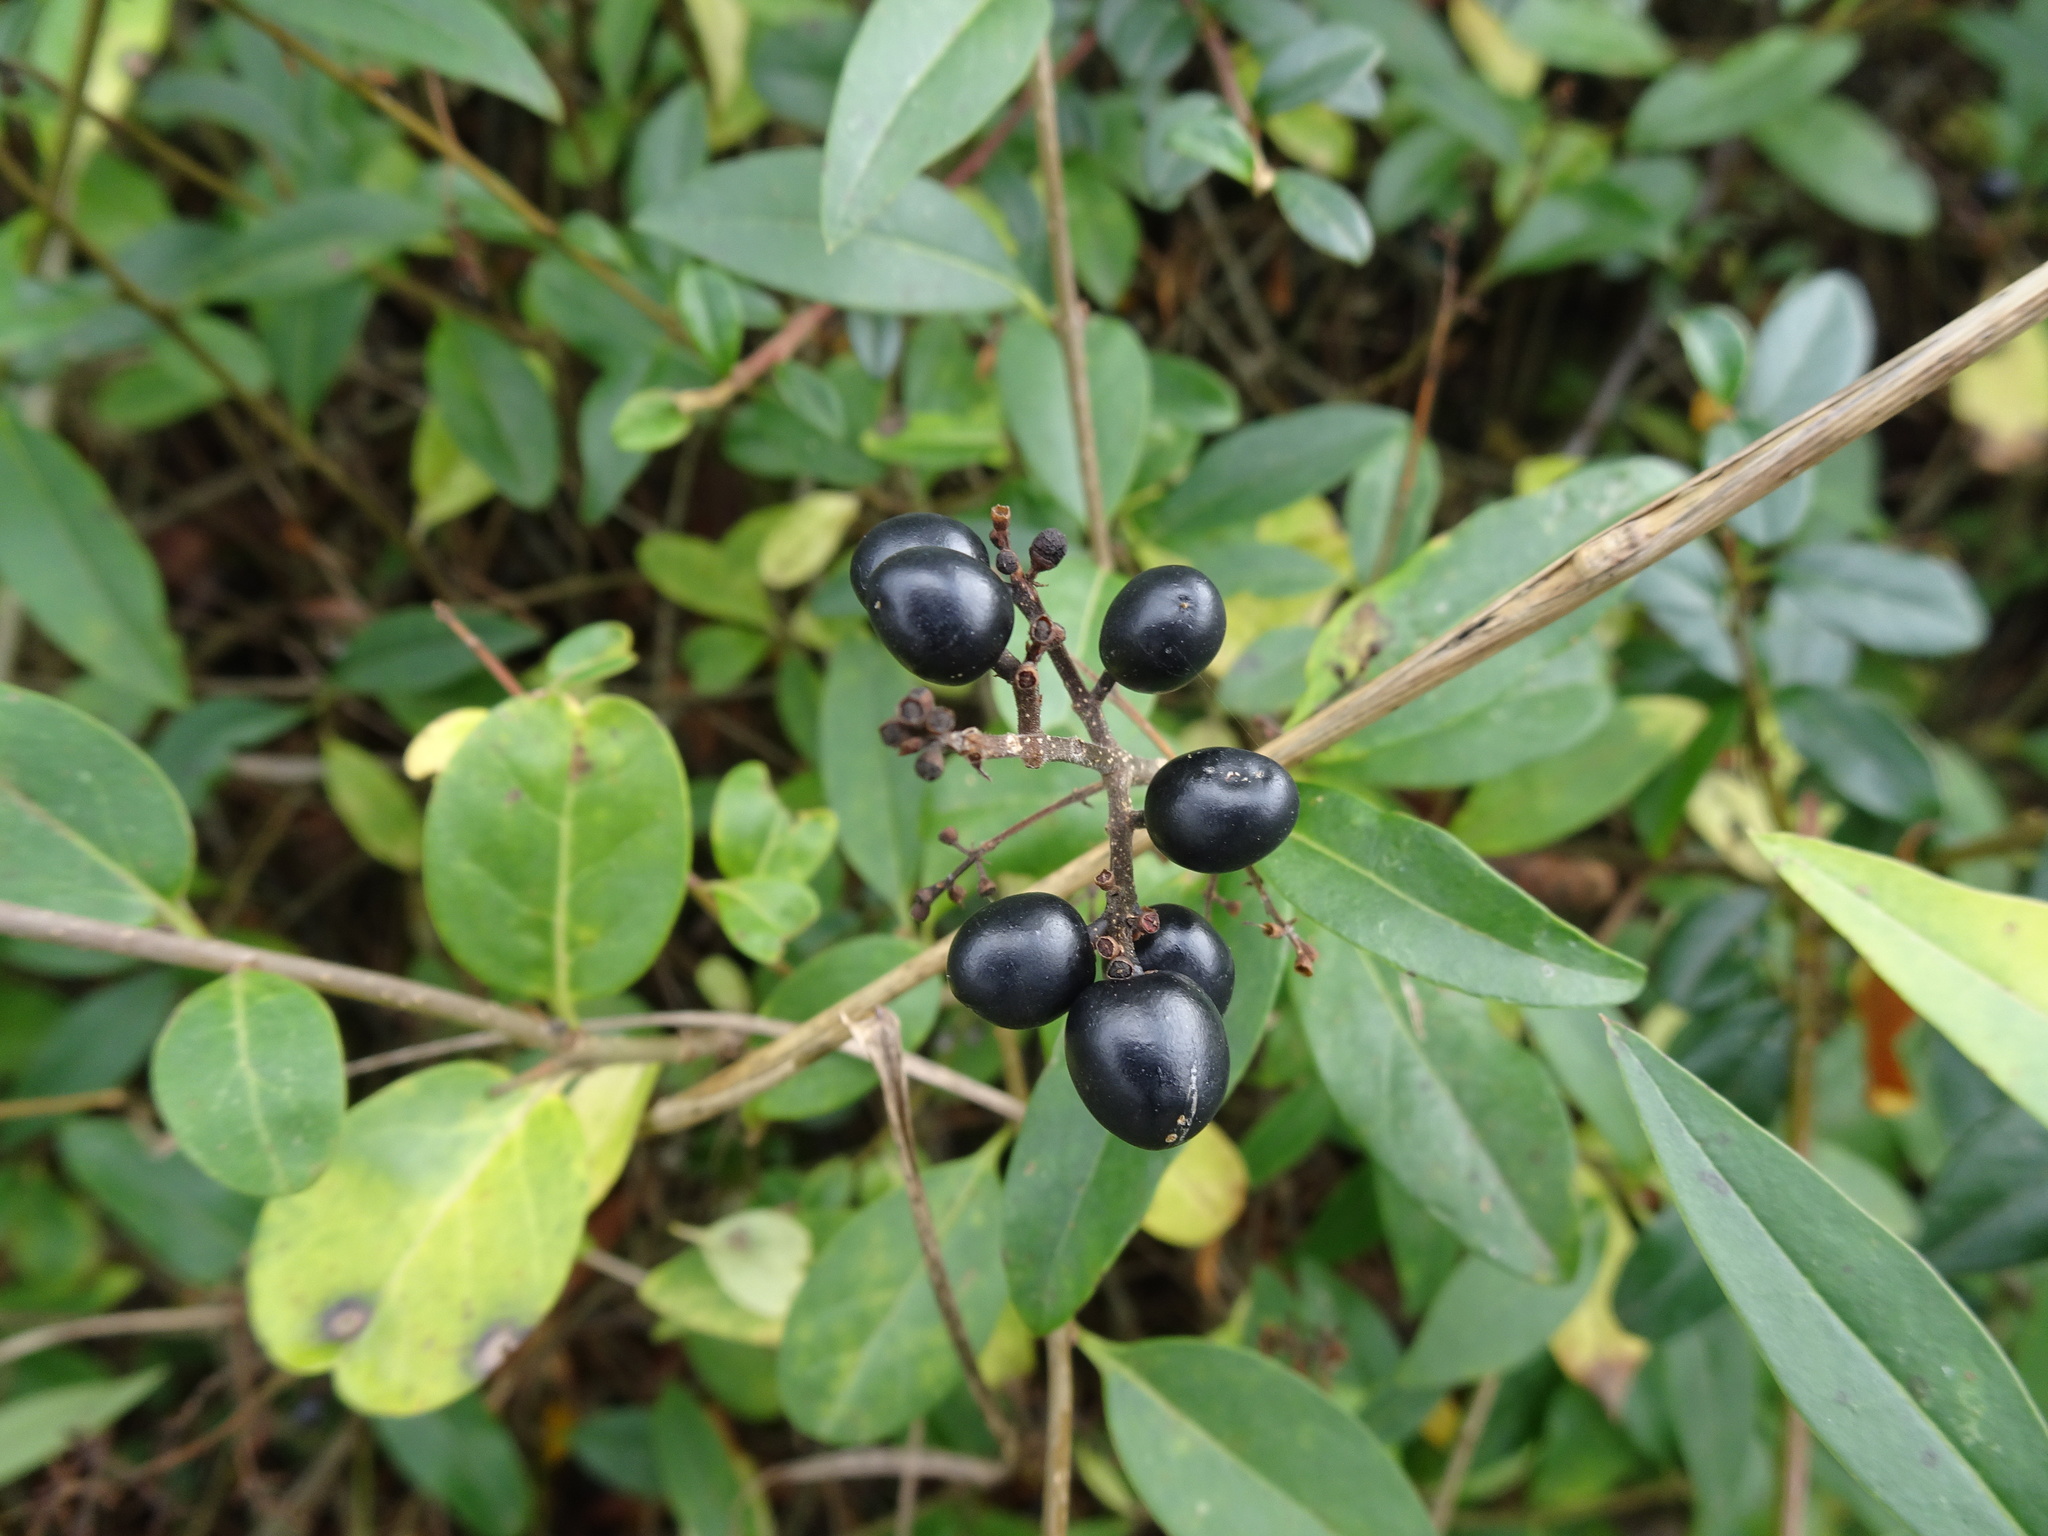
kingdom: Plantae
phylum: Tracheophyta
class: Magnoliopsida
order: Lamiales
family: Oleaceae
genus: Ligustrum
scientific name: Ligustrum vulgare
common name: Wild privet
